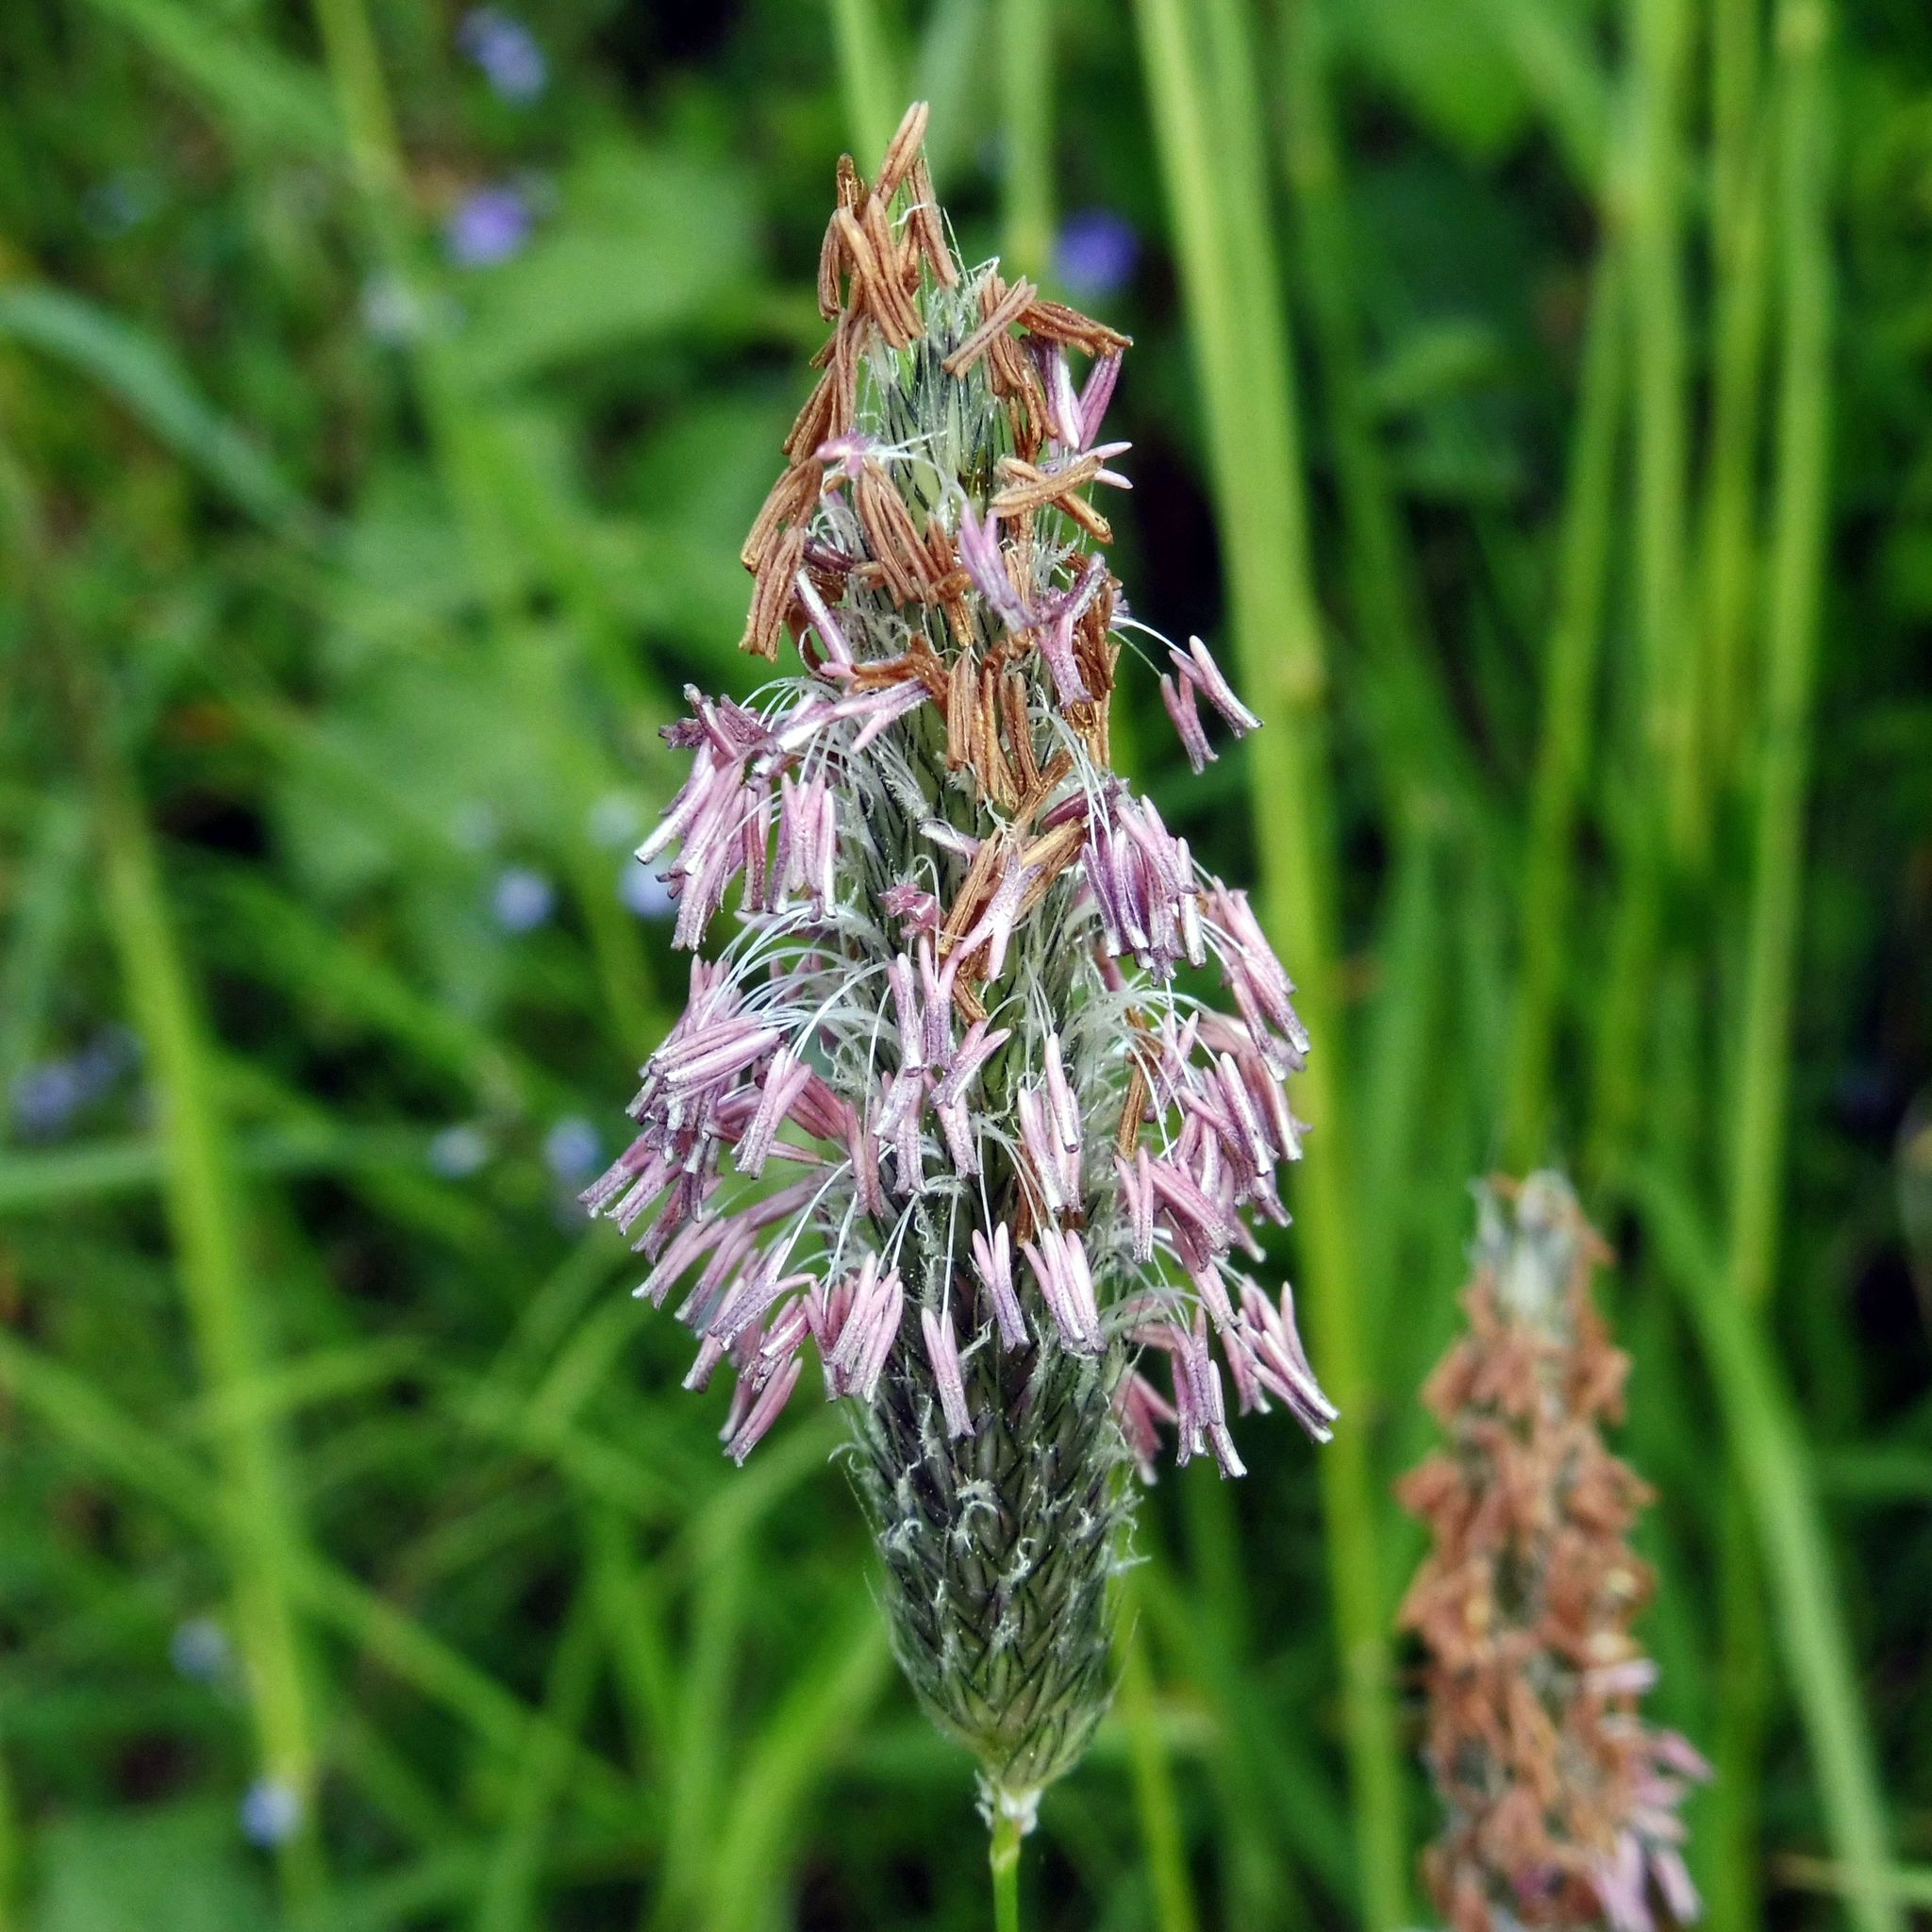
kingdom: Plantae
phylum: Tracheophyta
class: Liliopsida
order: Poales
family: Poaceae
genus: Alopecurus
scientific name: Alopecurus pratensis
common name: Meadow foxtail
